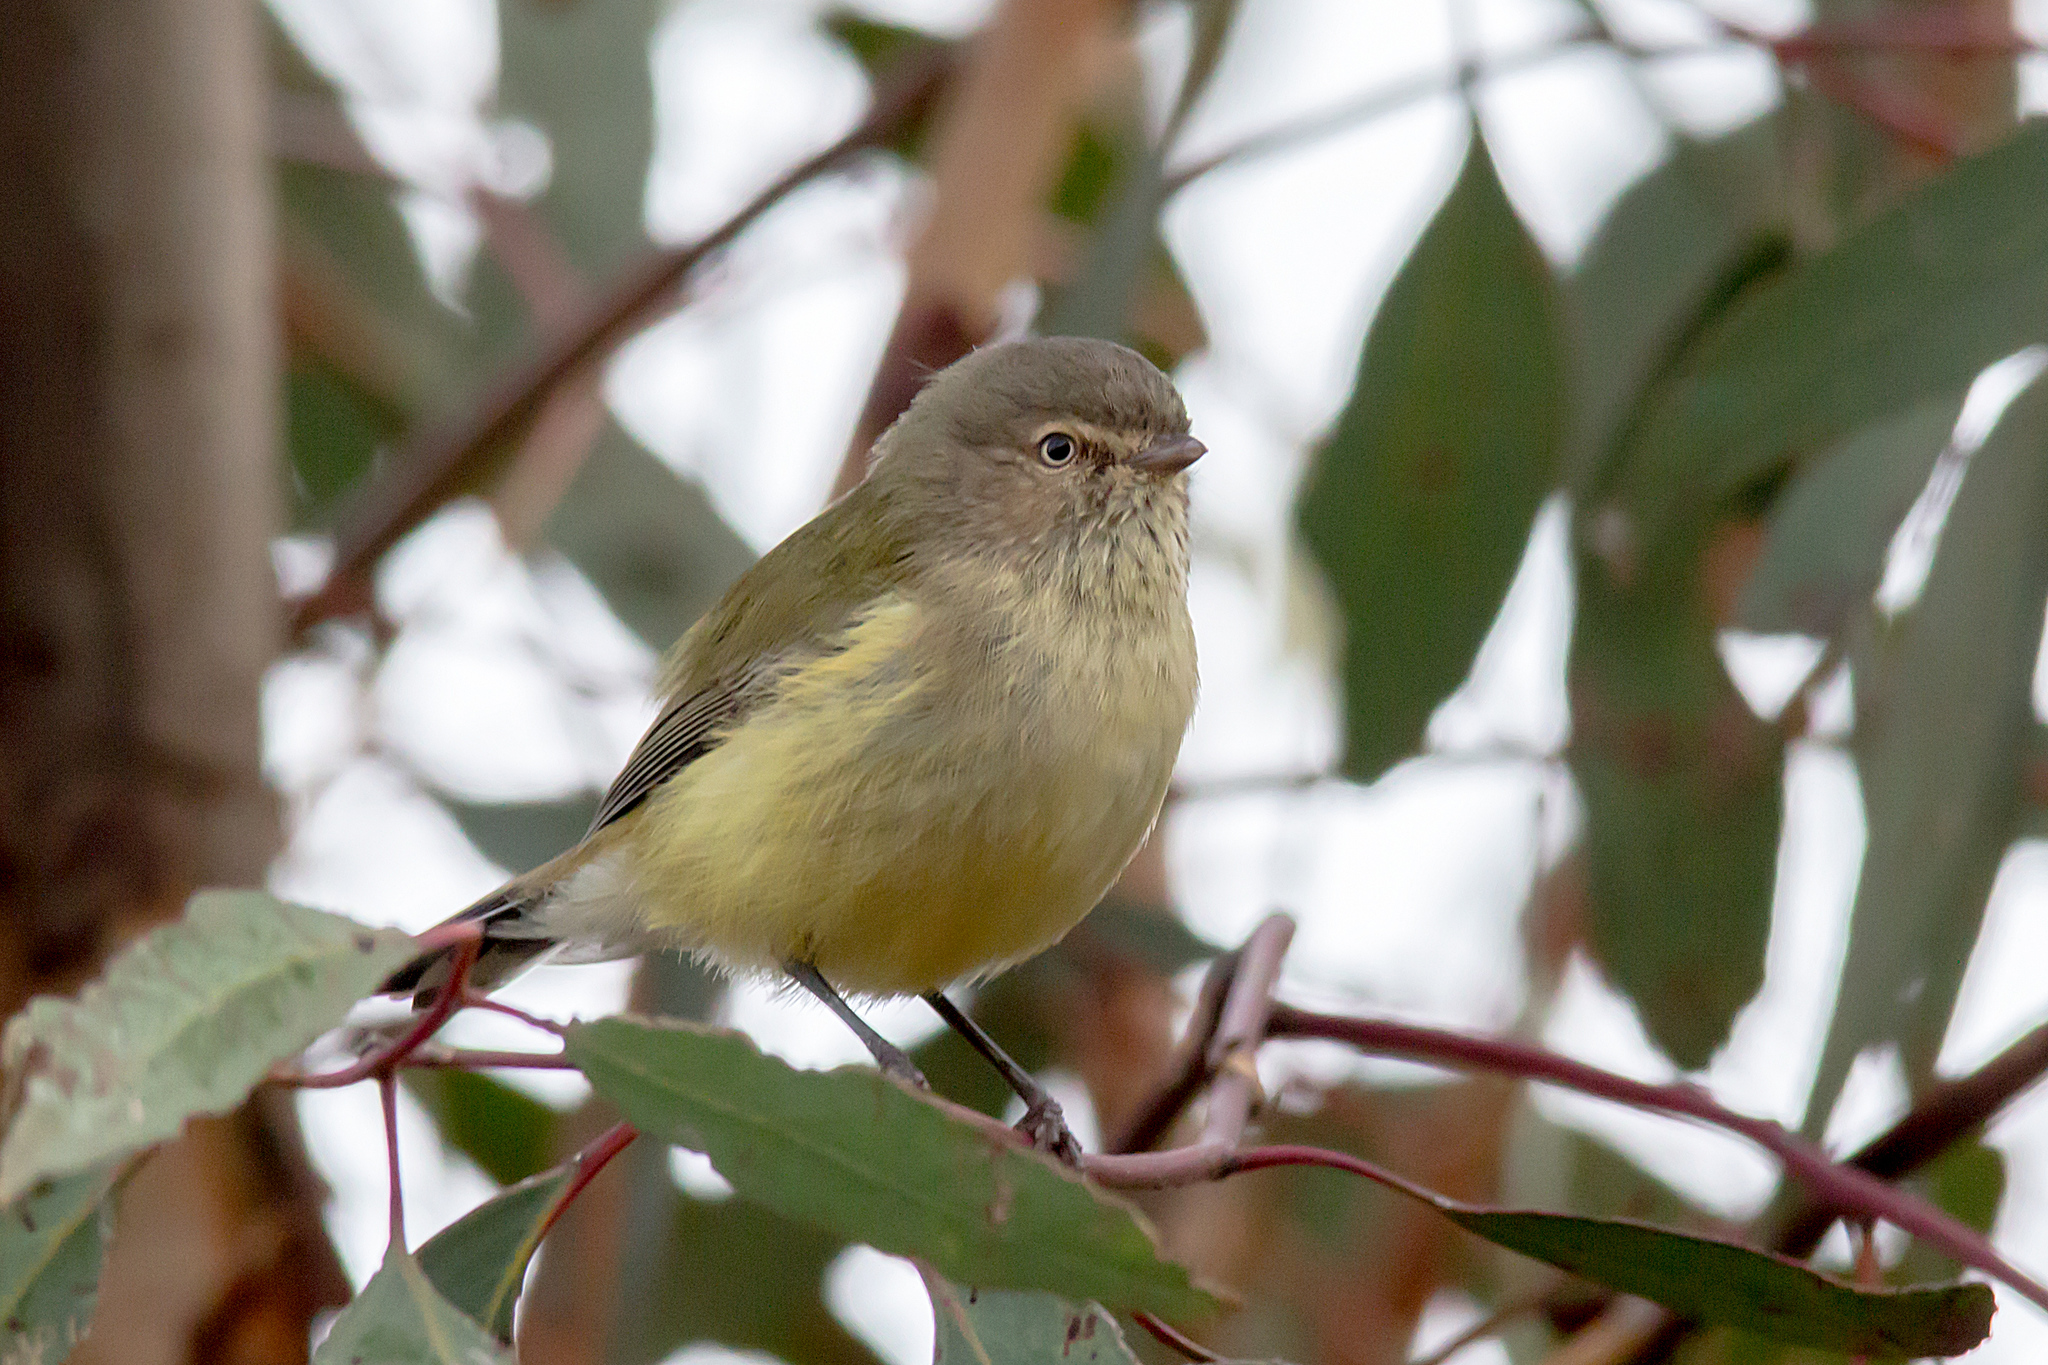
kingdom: Animalia
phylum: Chordata
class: Aves
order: Passeriformes
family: Acanthizidae
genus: Smicrornis
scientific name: Smicrornis brevirostris
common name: Weebill
